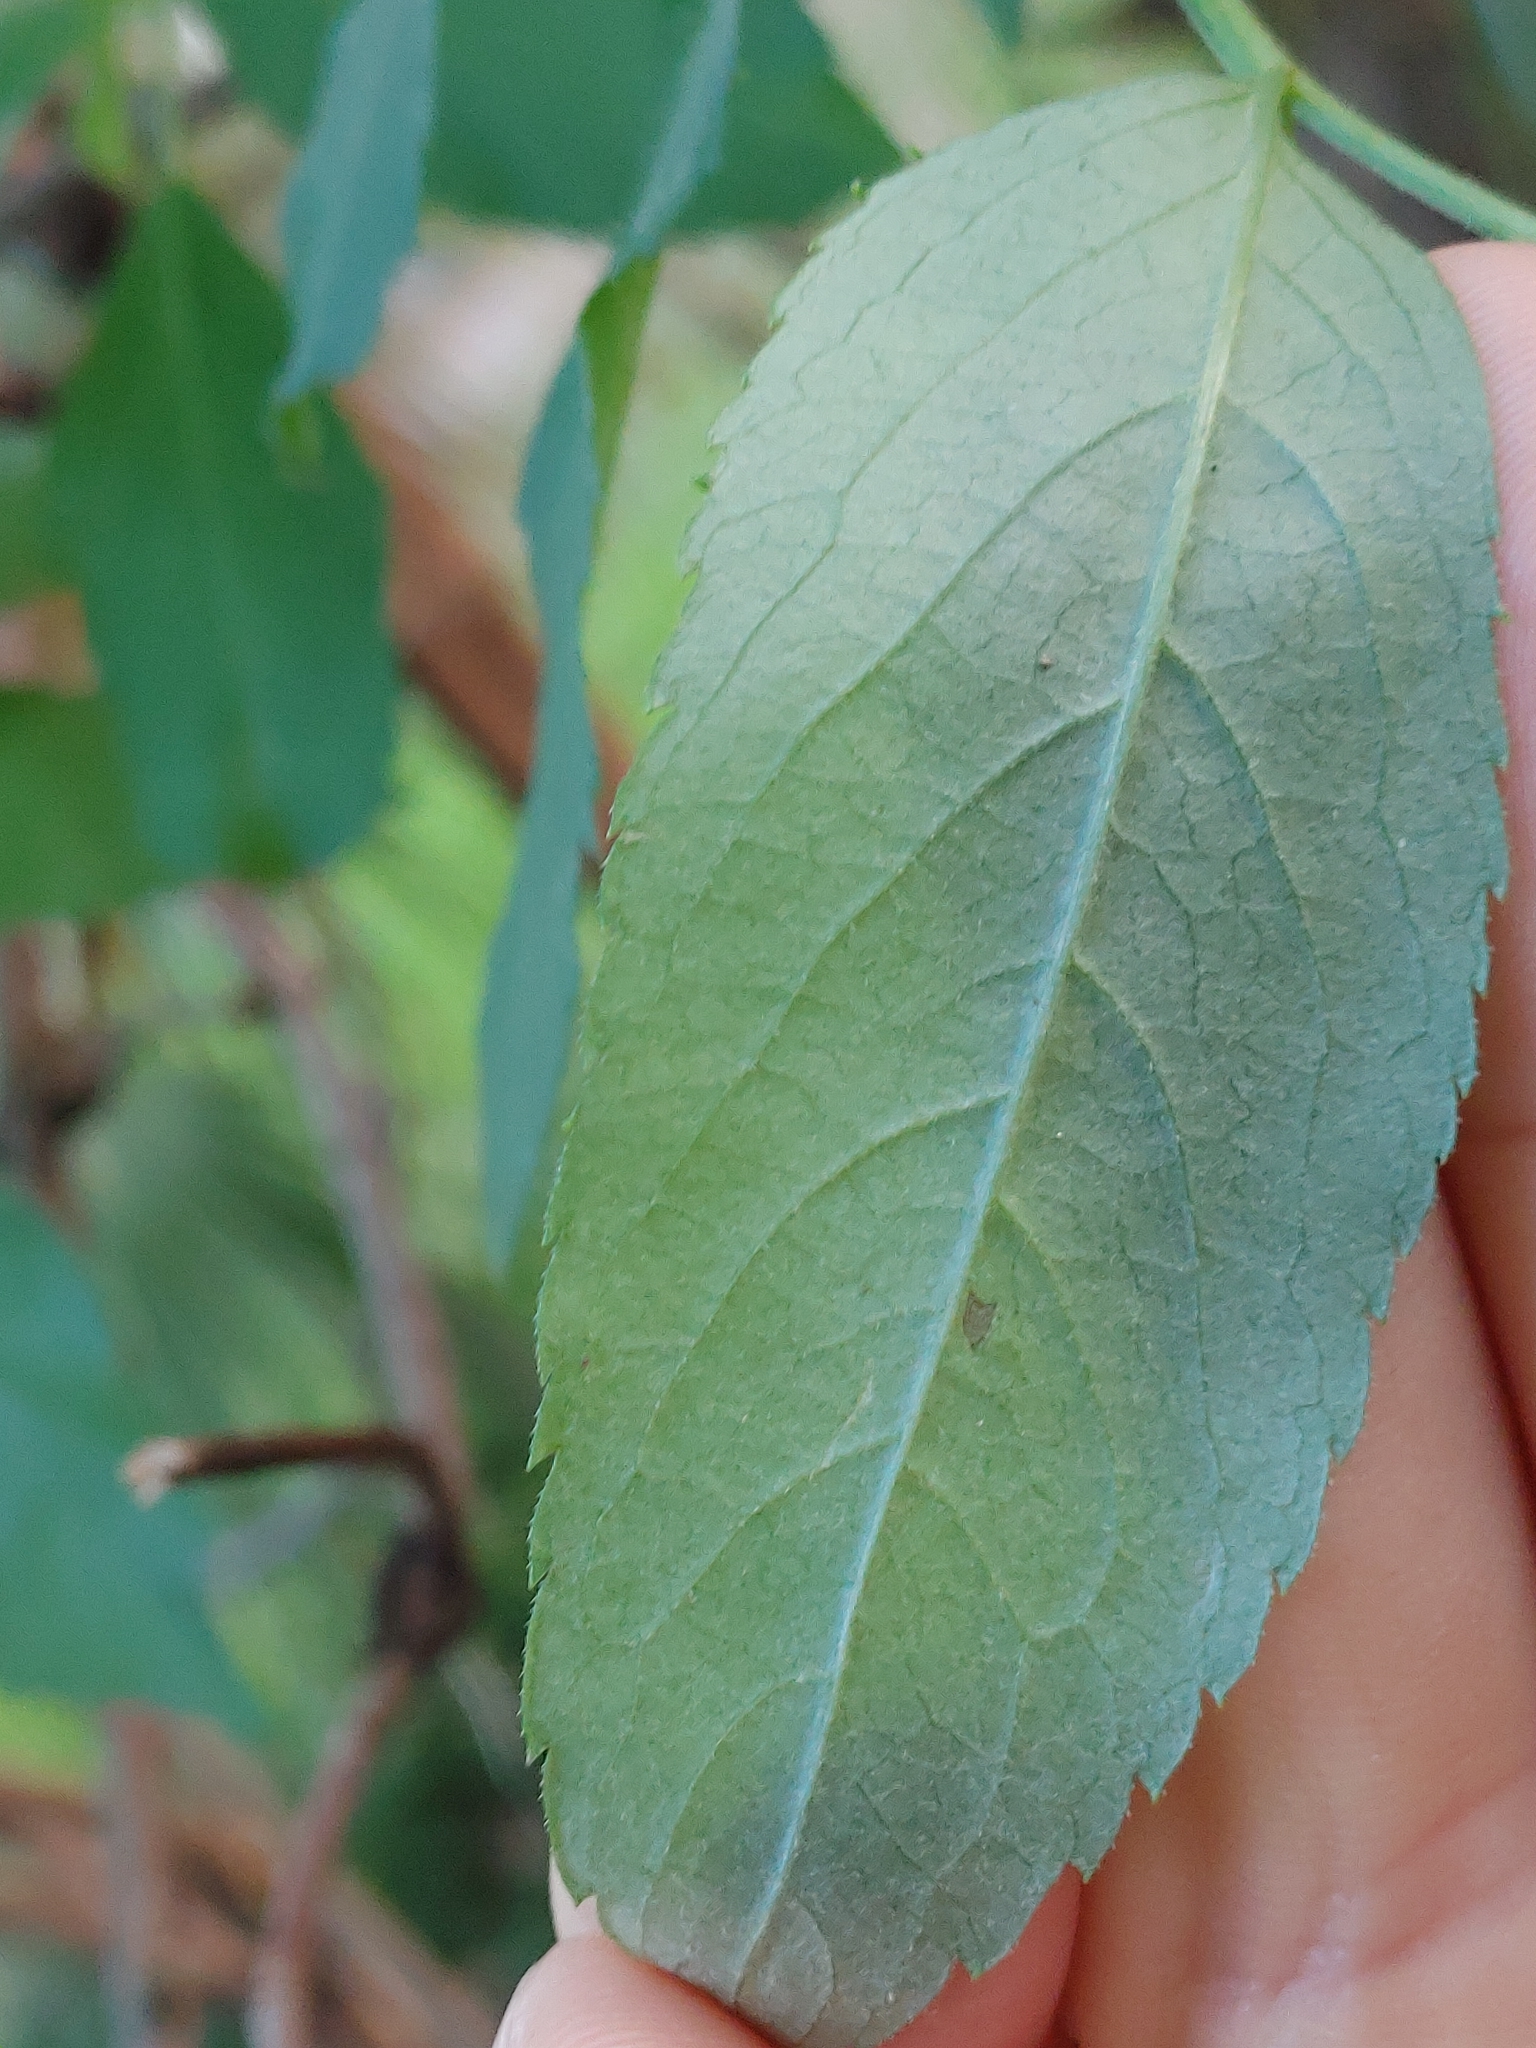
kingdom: Plantae
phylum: Tracheophyta
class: Magnoliopsida
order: Dipsacales
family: Viburnaceae
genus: Sambucus
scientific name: Sambucus canadensis
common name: American elder
